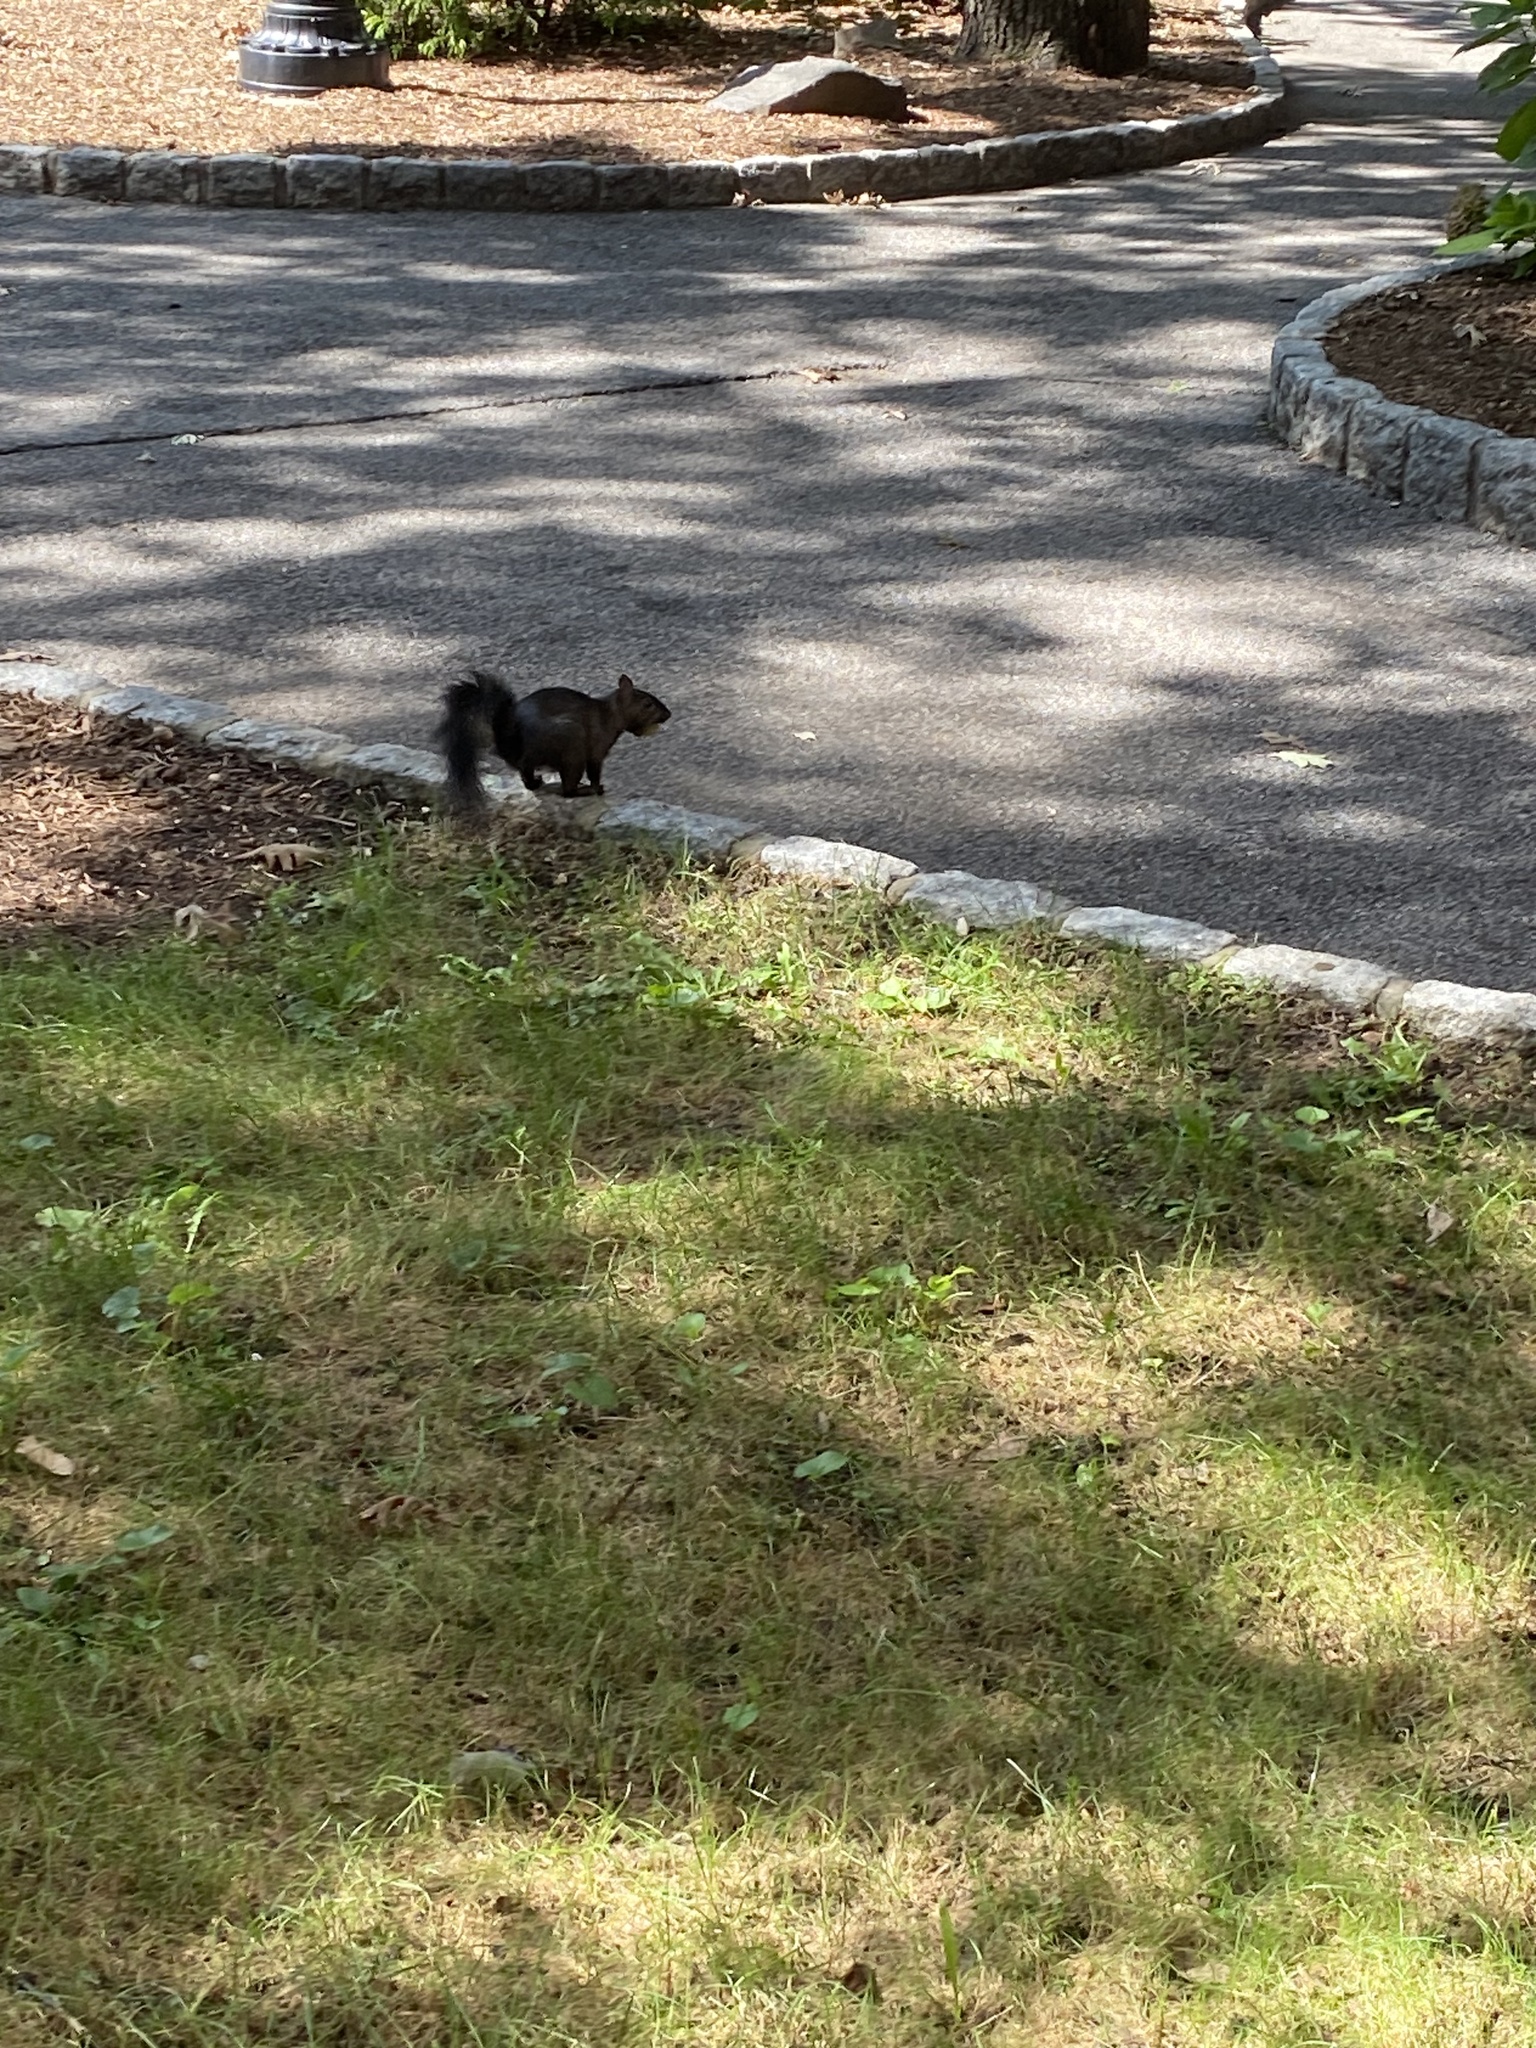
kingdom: Animalia
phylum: Chordata
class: Mammalia
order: Rodentia
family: Sciuridae
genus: Sciurus
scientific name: Sciurus carolinensis
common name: Eastern gray squirrel
